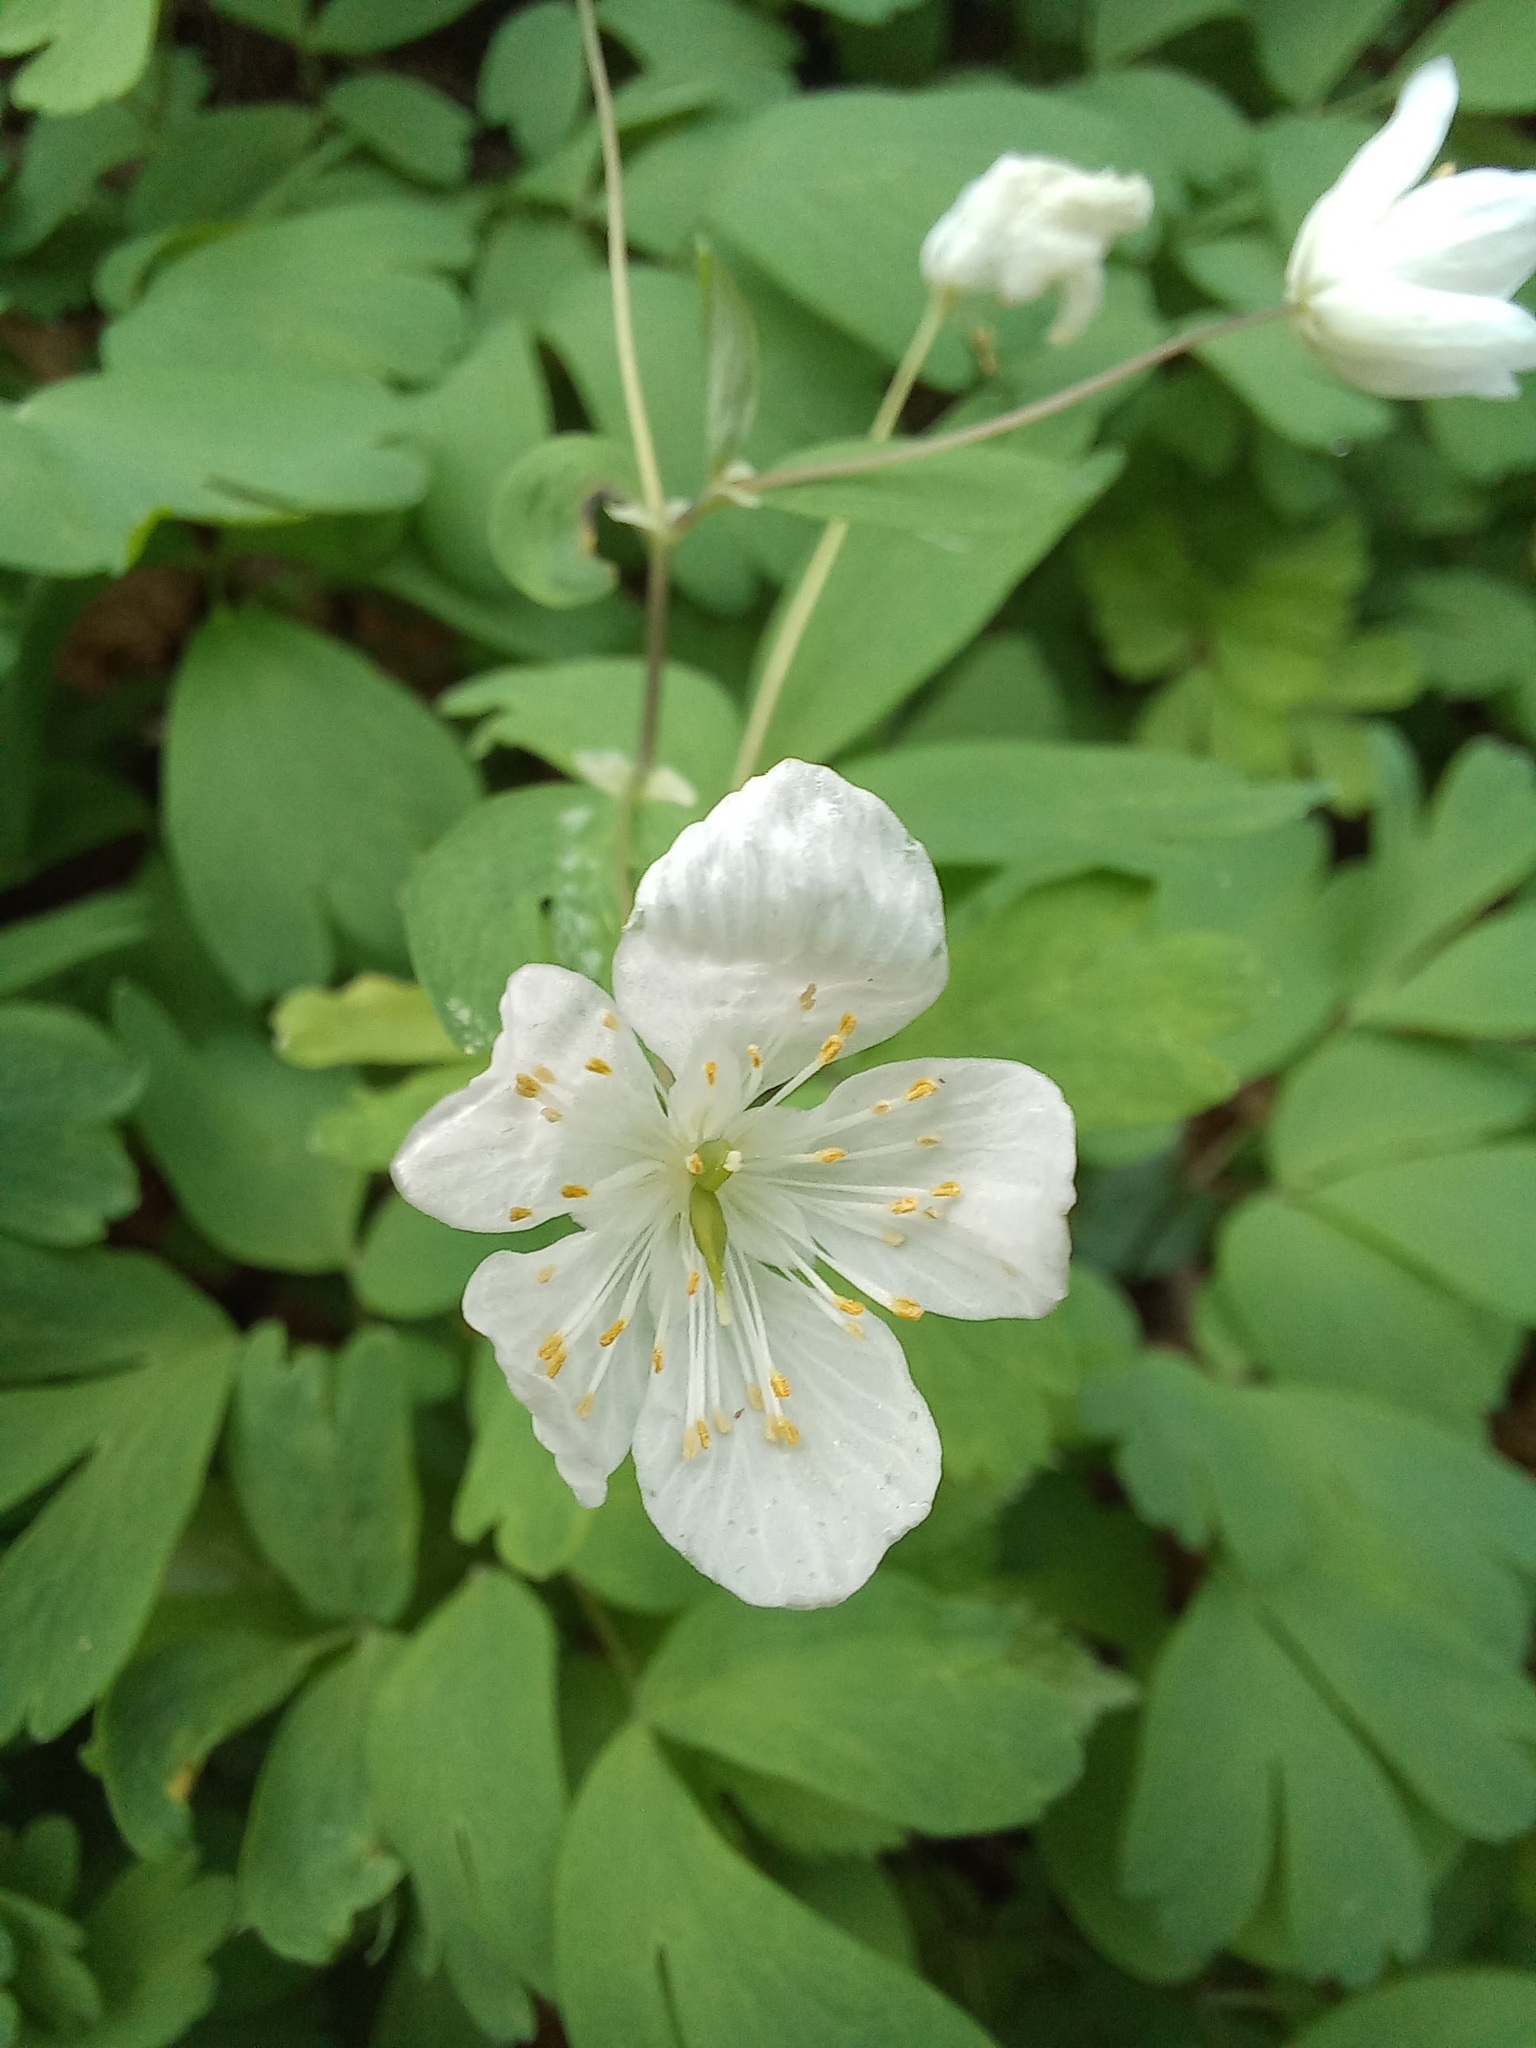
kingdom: Plantae
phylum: Tracheophyta
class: Magnoliopsida
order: Ranunculales
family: Ranunculaceae
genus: Isopyrum
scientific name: Isopyrum thalictroides
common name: Isopyrum
